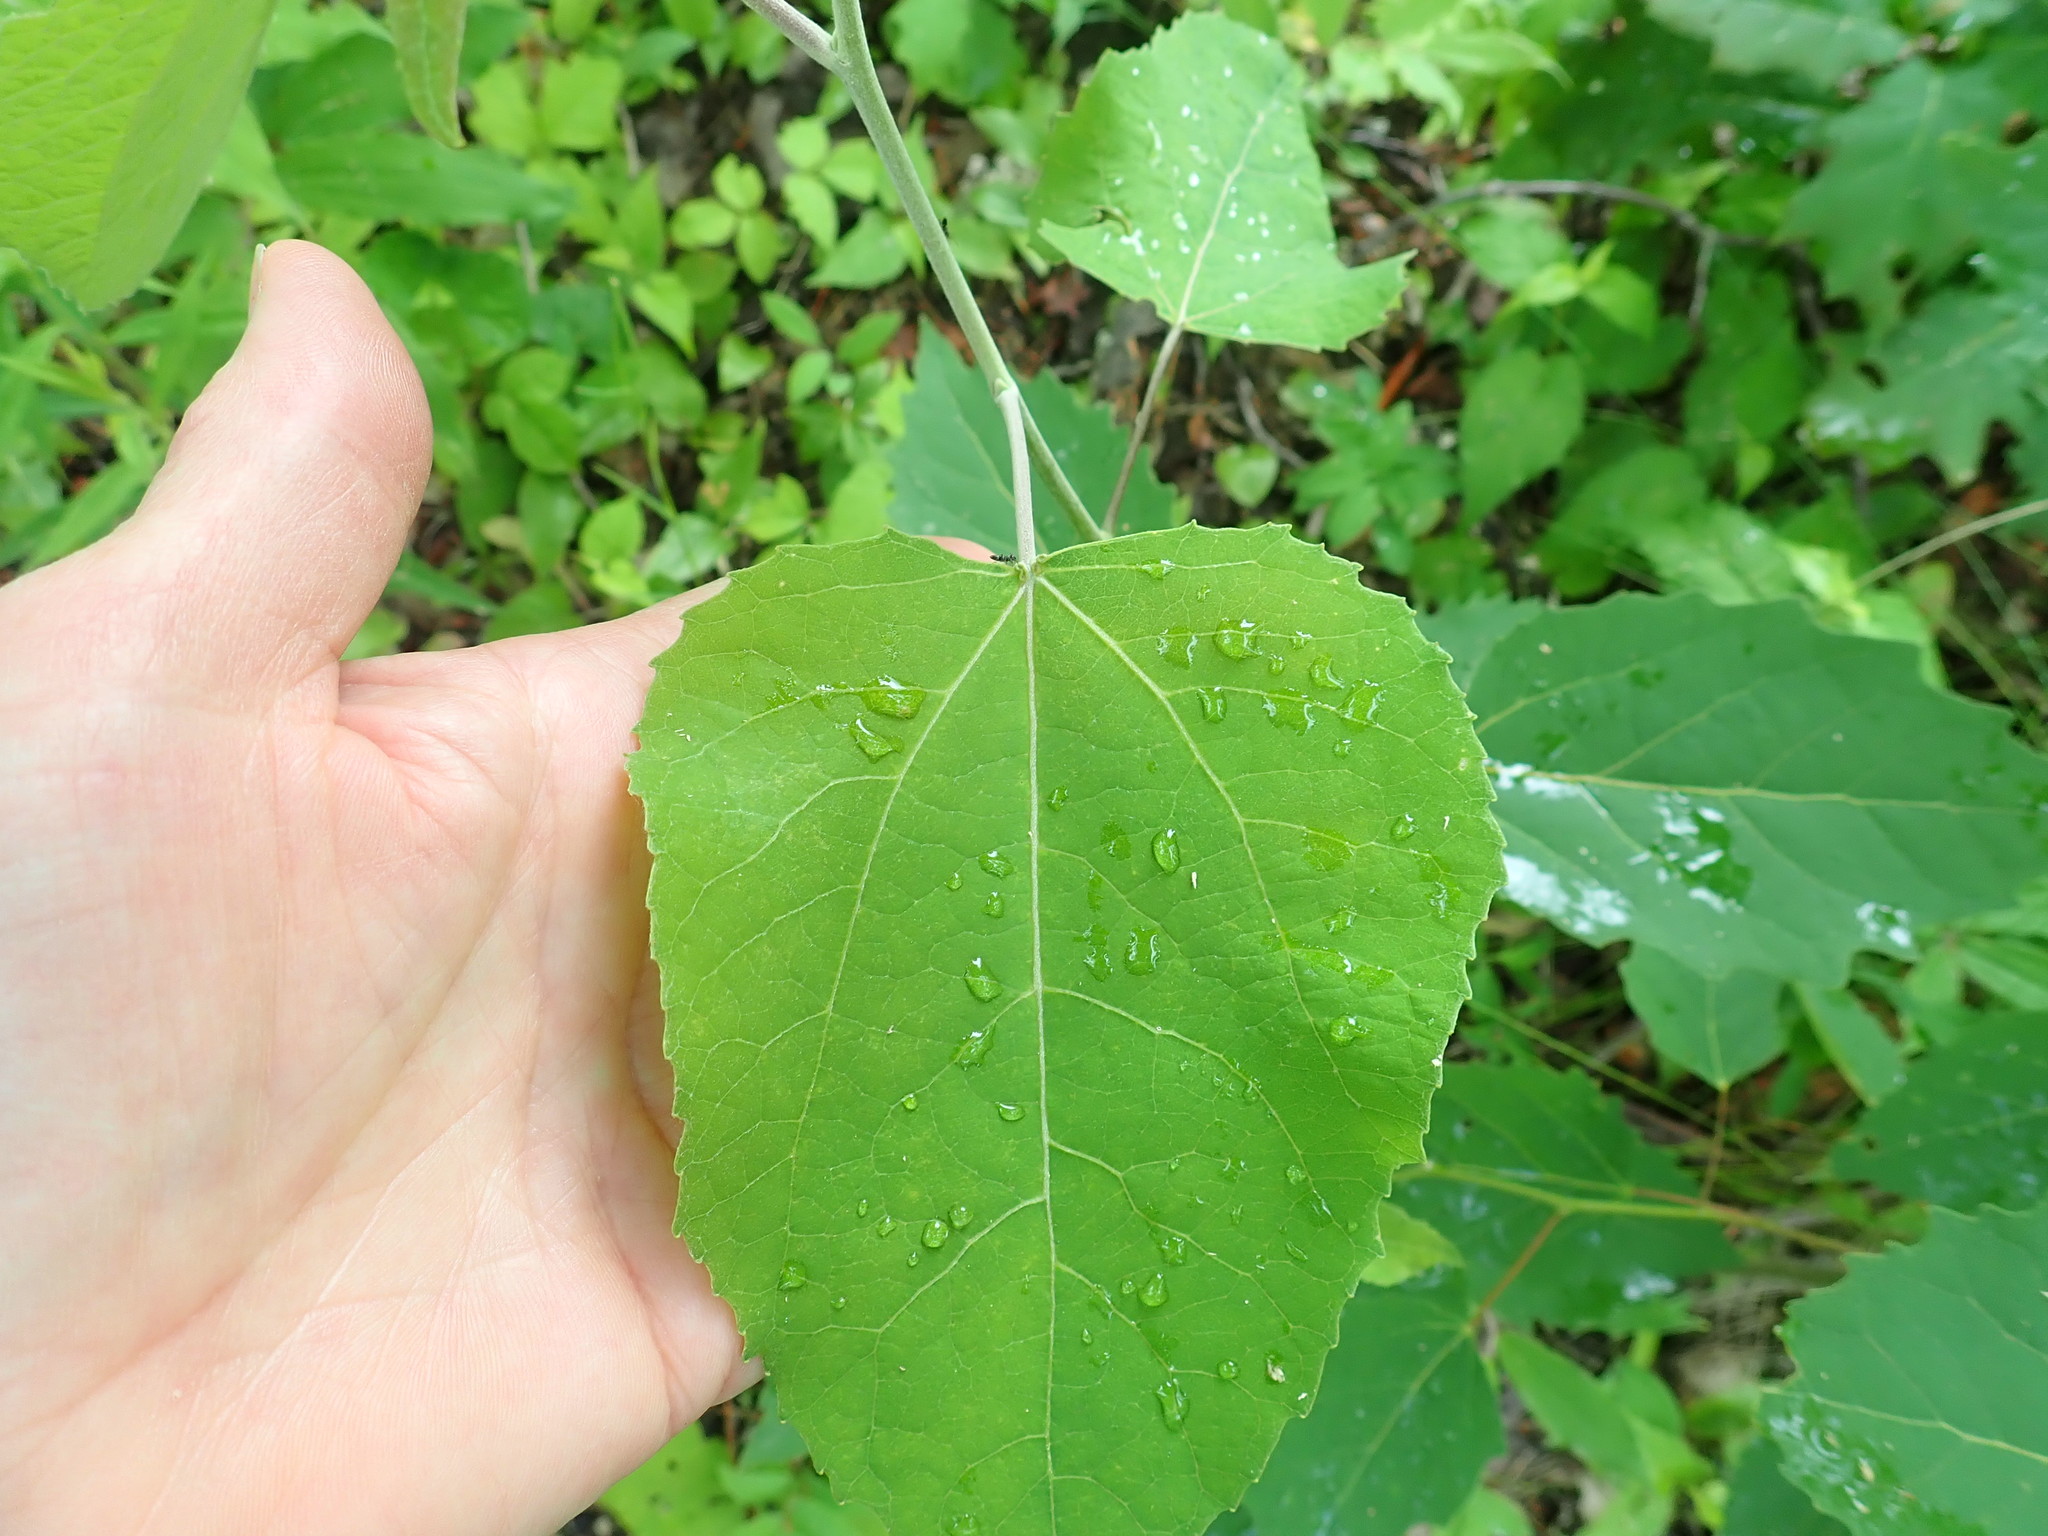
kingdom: Plantae
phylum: Tracheophyta
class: Magnoliopsida
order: Malpighiales
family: Salicaceae
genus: Populus
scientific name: Populus deltoides
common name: Eastern cottonwood
